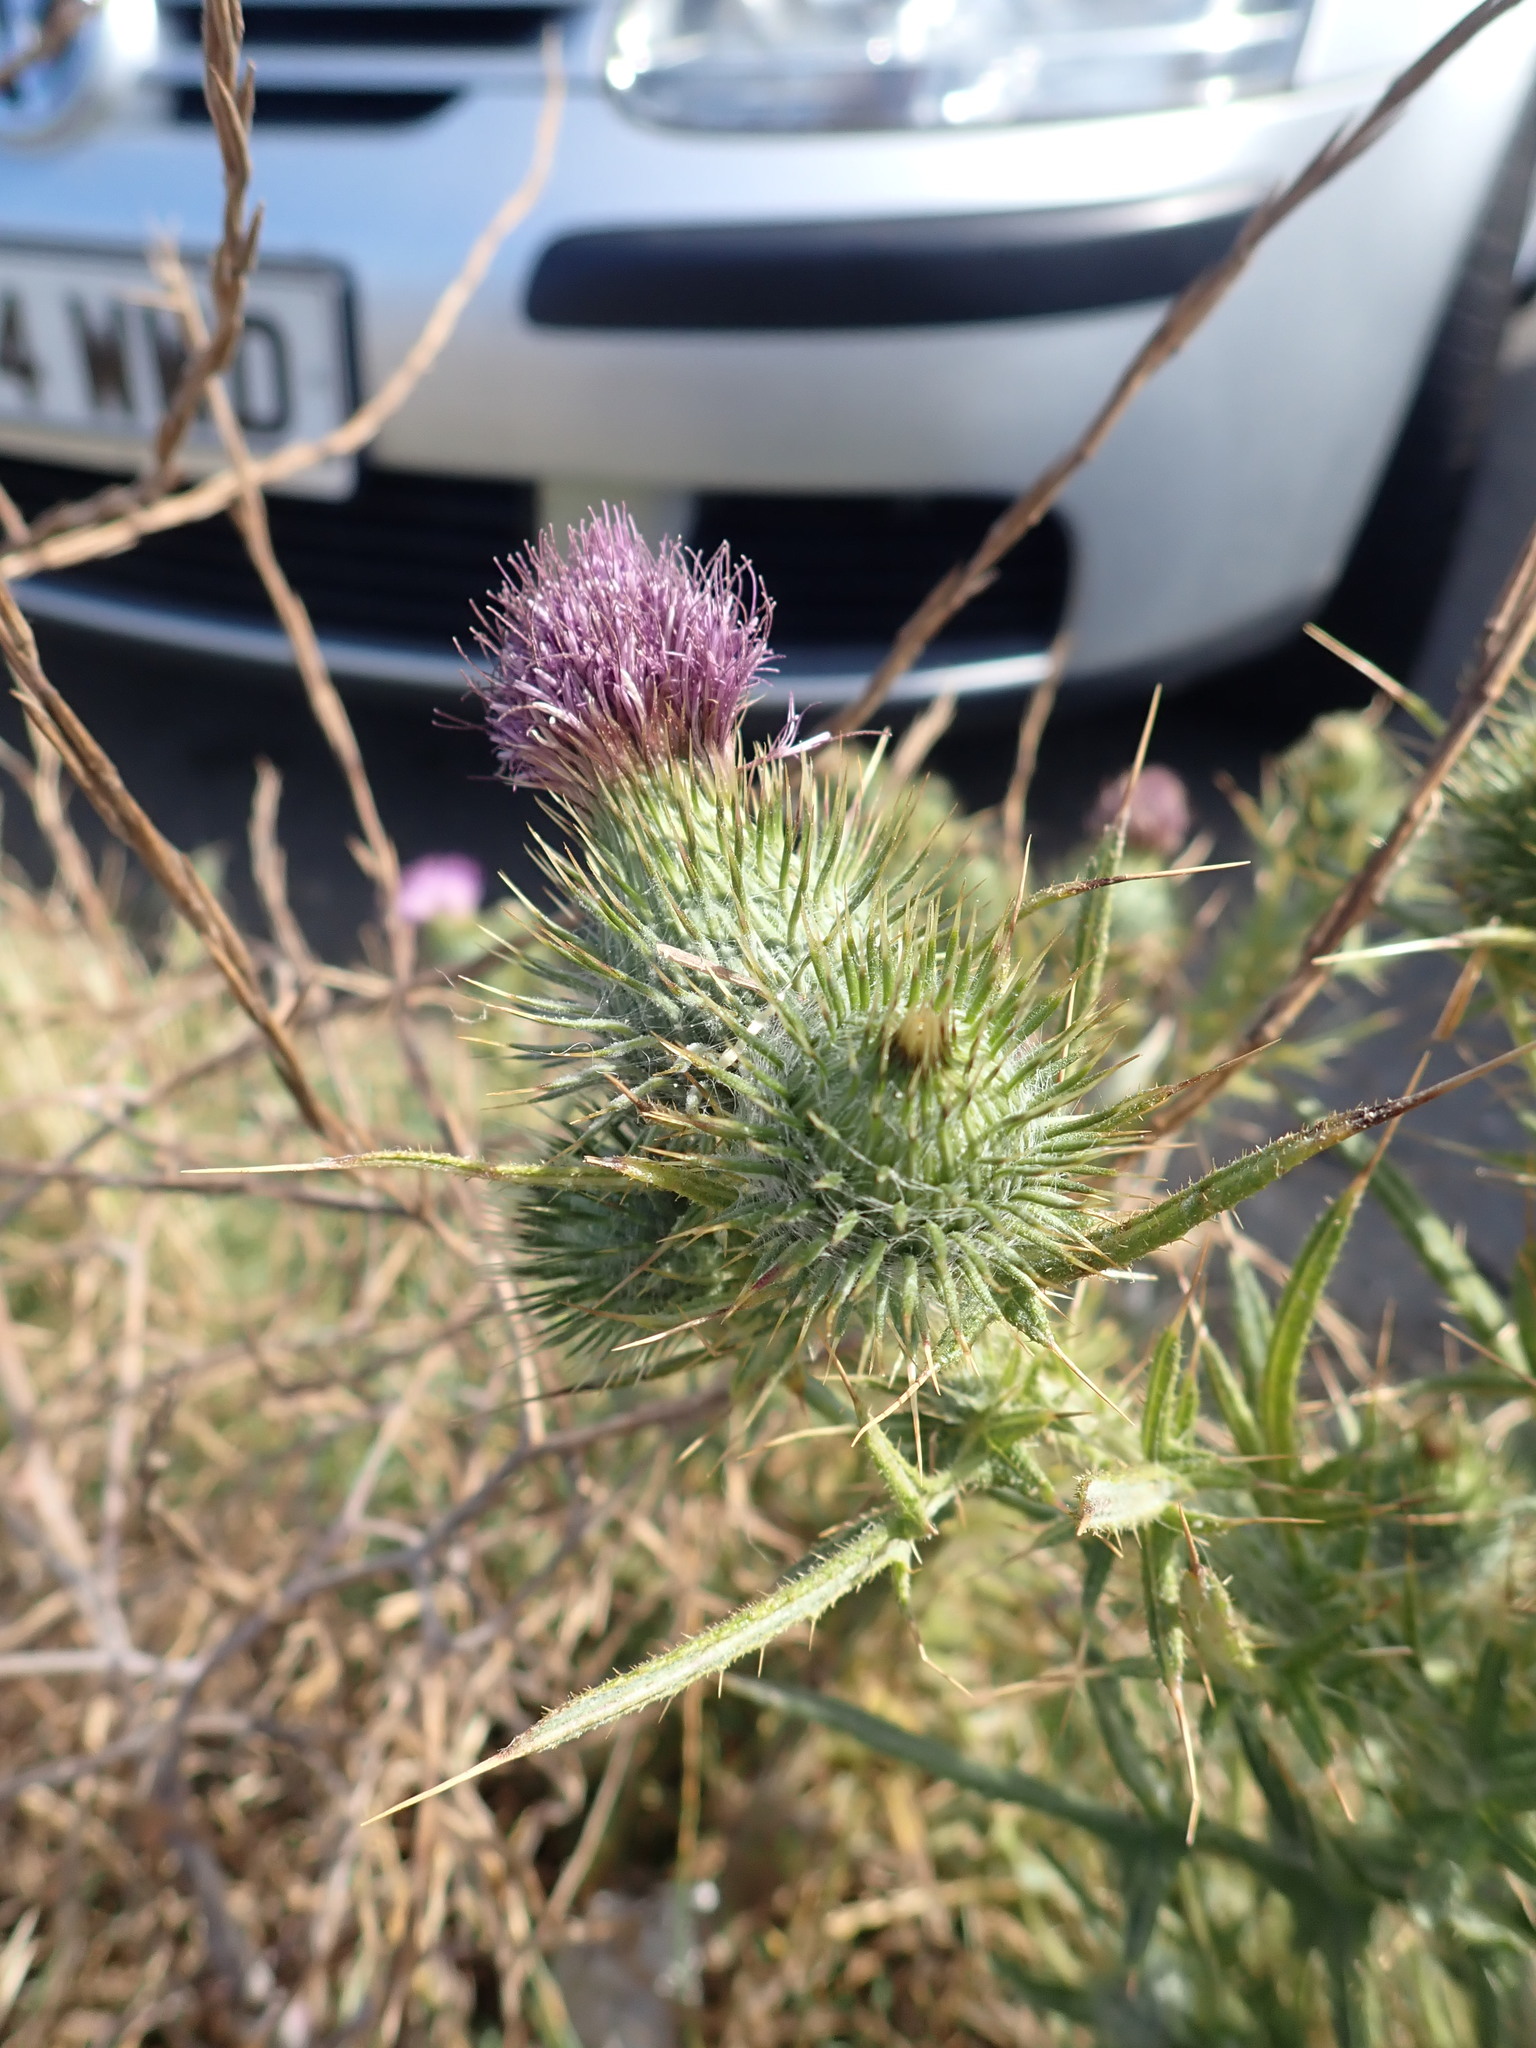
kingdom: Plantae
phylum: Tracheophyta
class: Magnoliopsida
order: Asterales
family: Asteraceae
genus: Cirsium
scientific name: Cirsium vulgare
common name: Bull thistle
